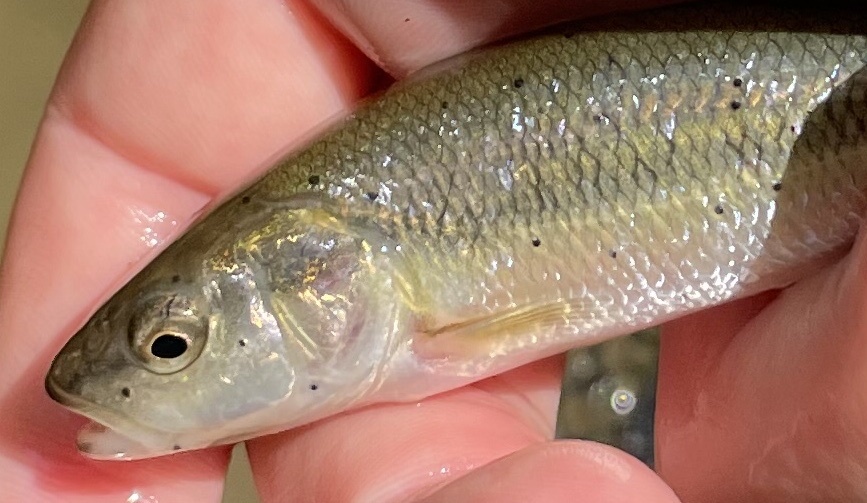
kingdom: Animalia
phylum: Platyhelminthes
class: Trematoda
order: Diplostomida
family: Diplostomidae
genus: Neascus
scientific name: Neascus
